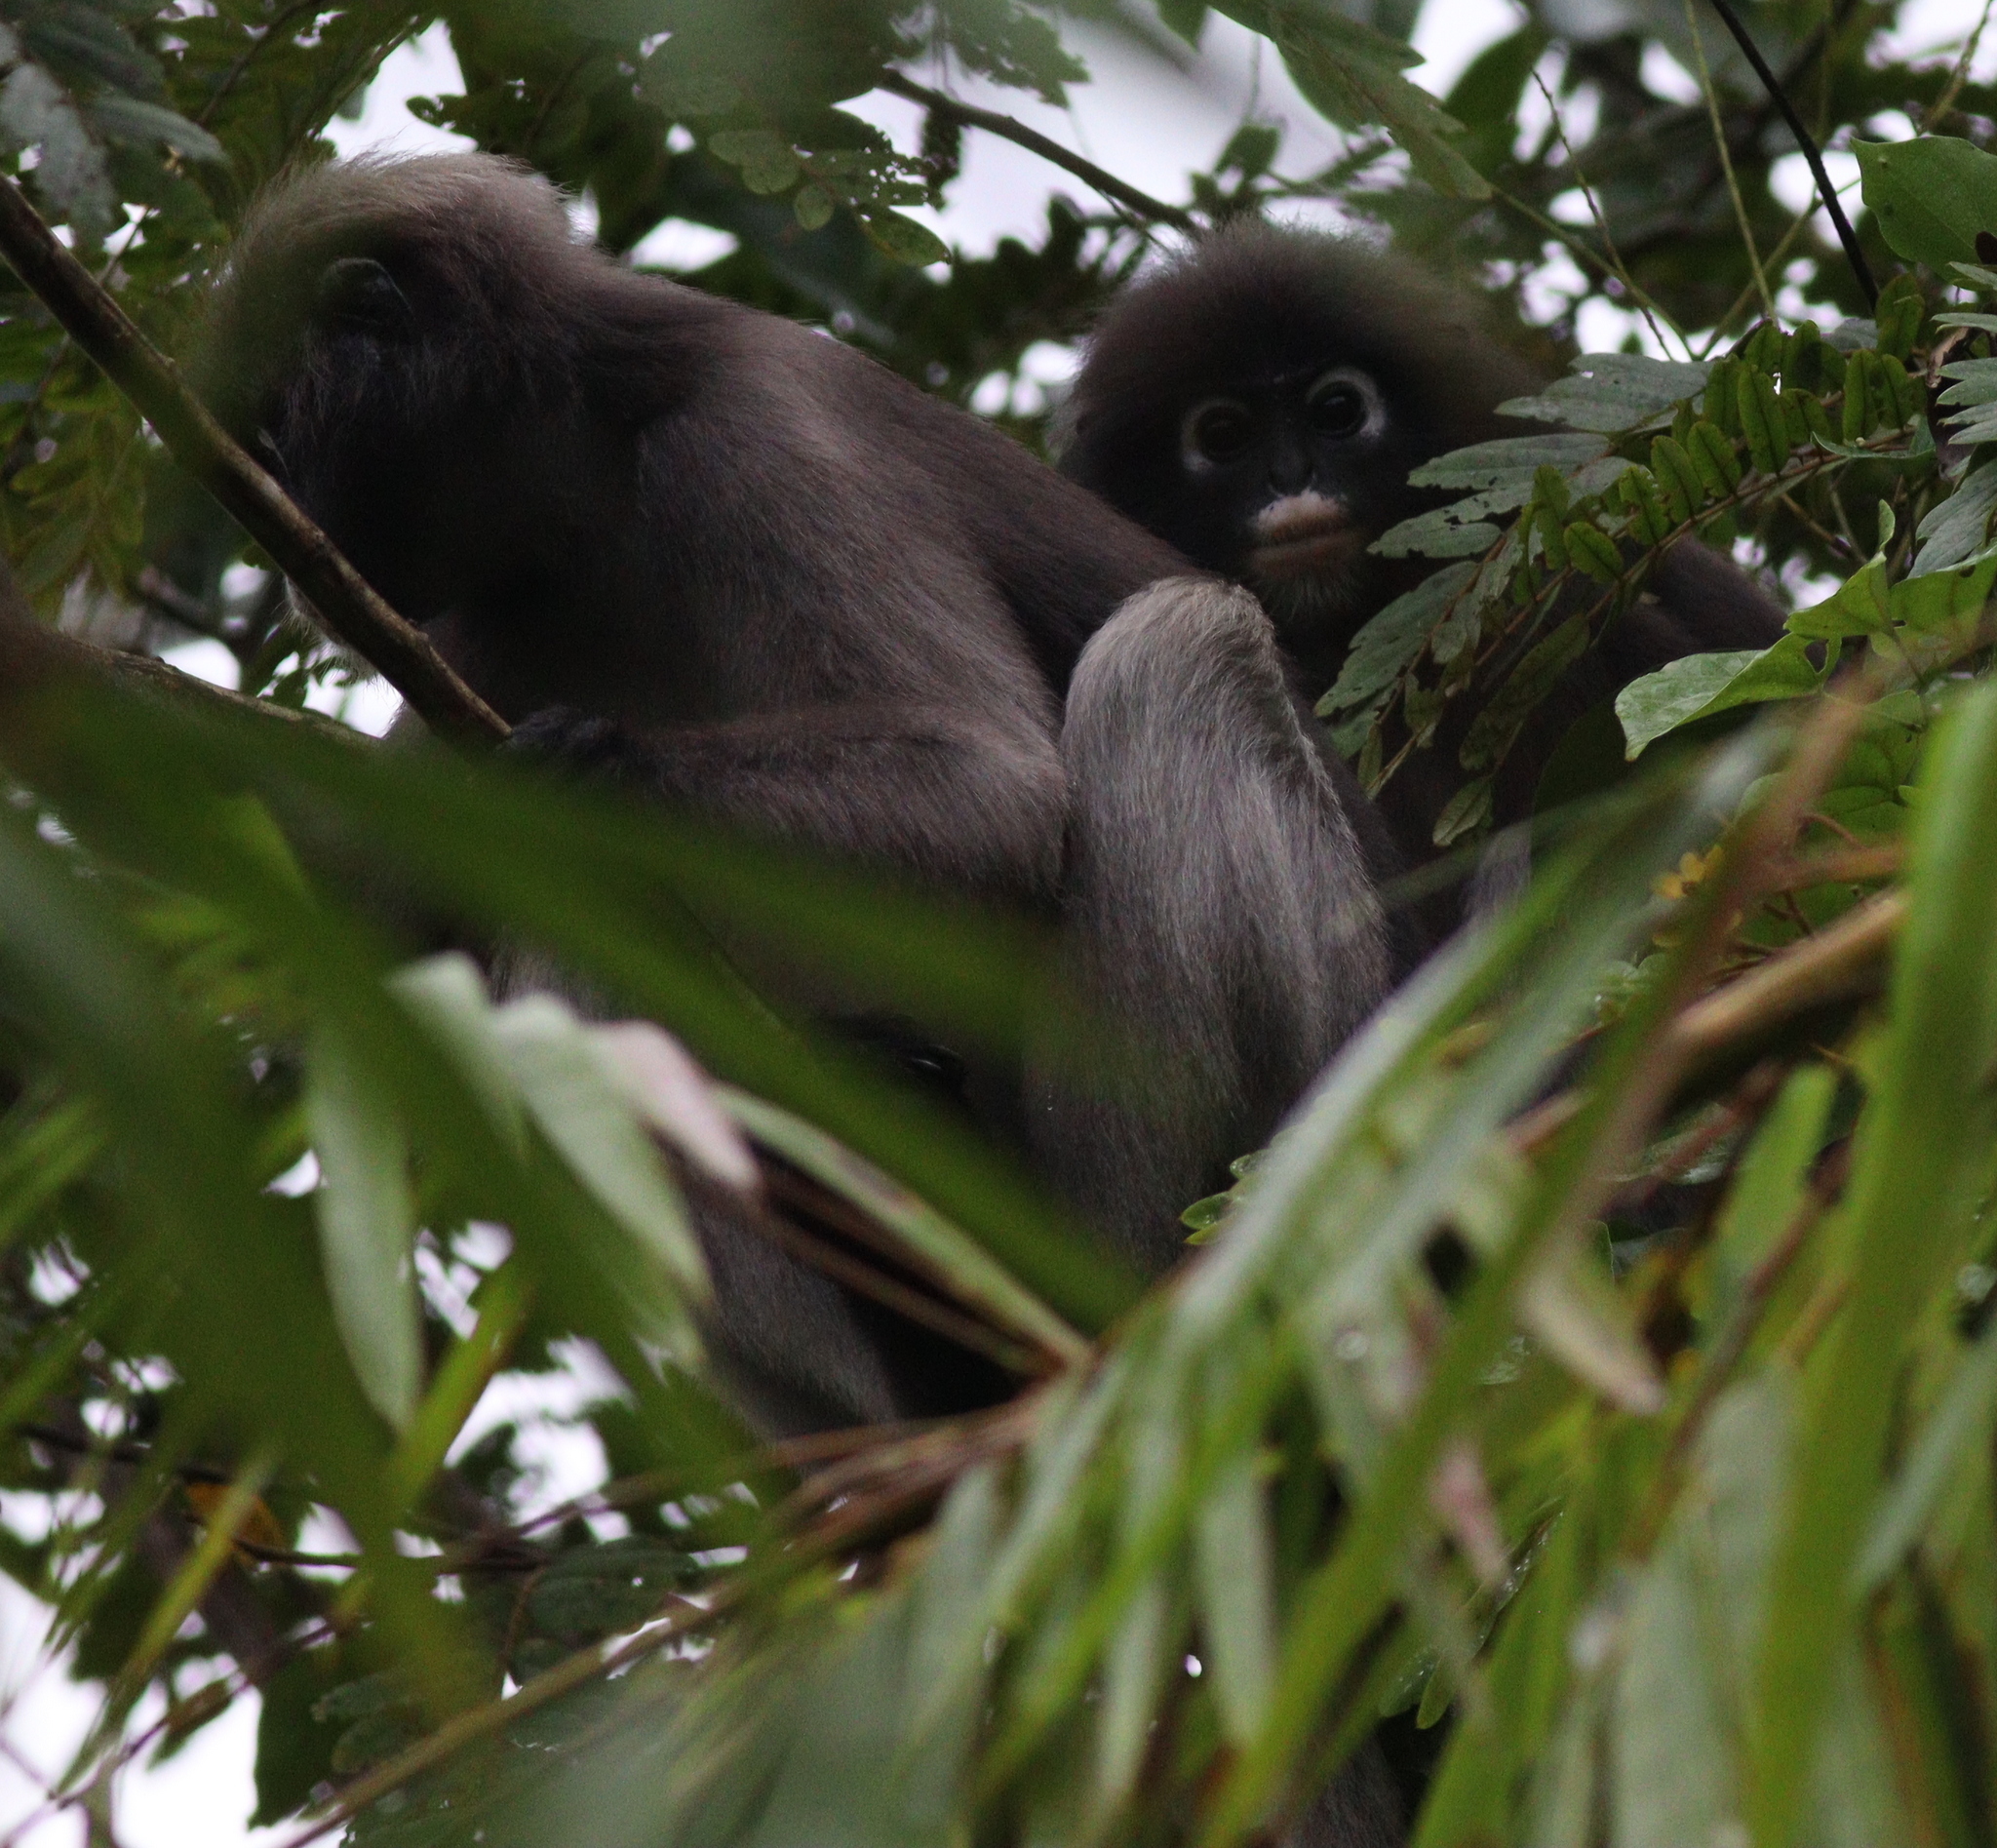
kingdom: Animalia
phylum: Chordata
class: Mammalia
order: Primates
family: Cercopithecidae
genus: Trachypithecus
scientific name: Trachypithecus obscurus
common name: Dusky leaf-monkey
